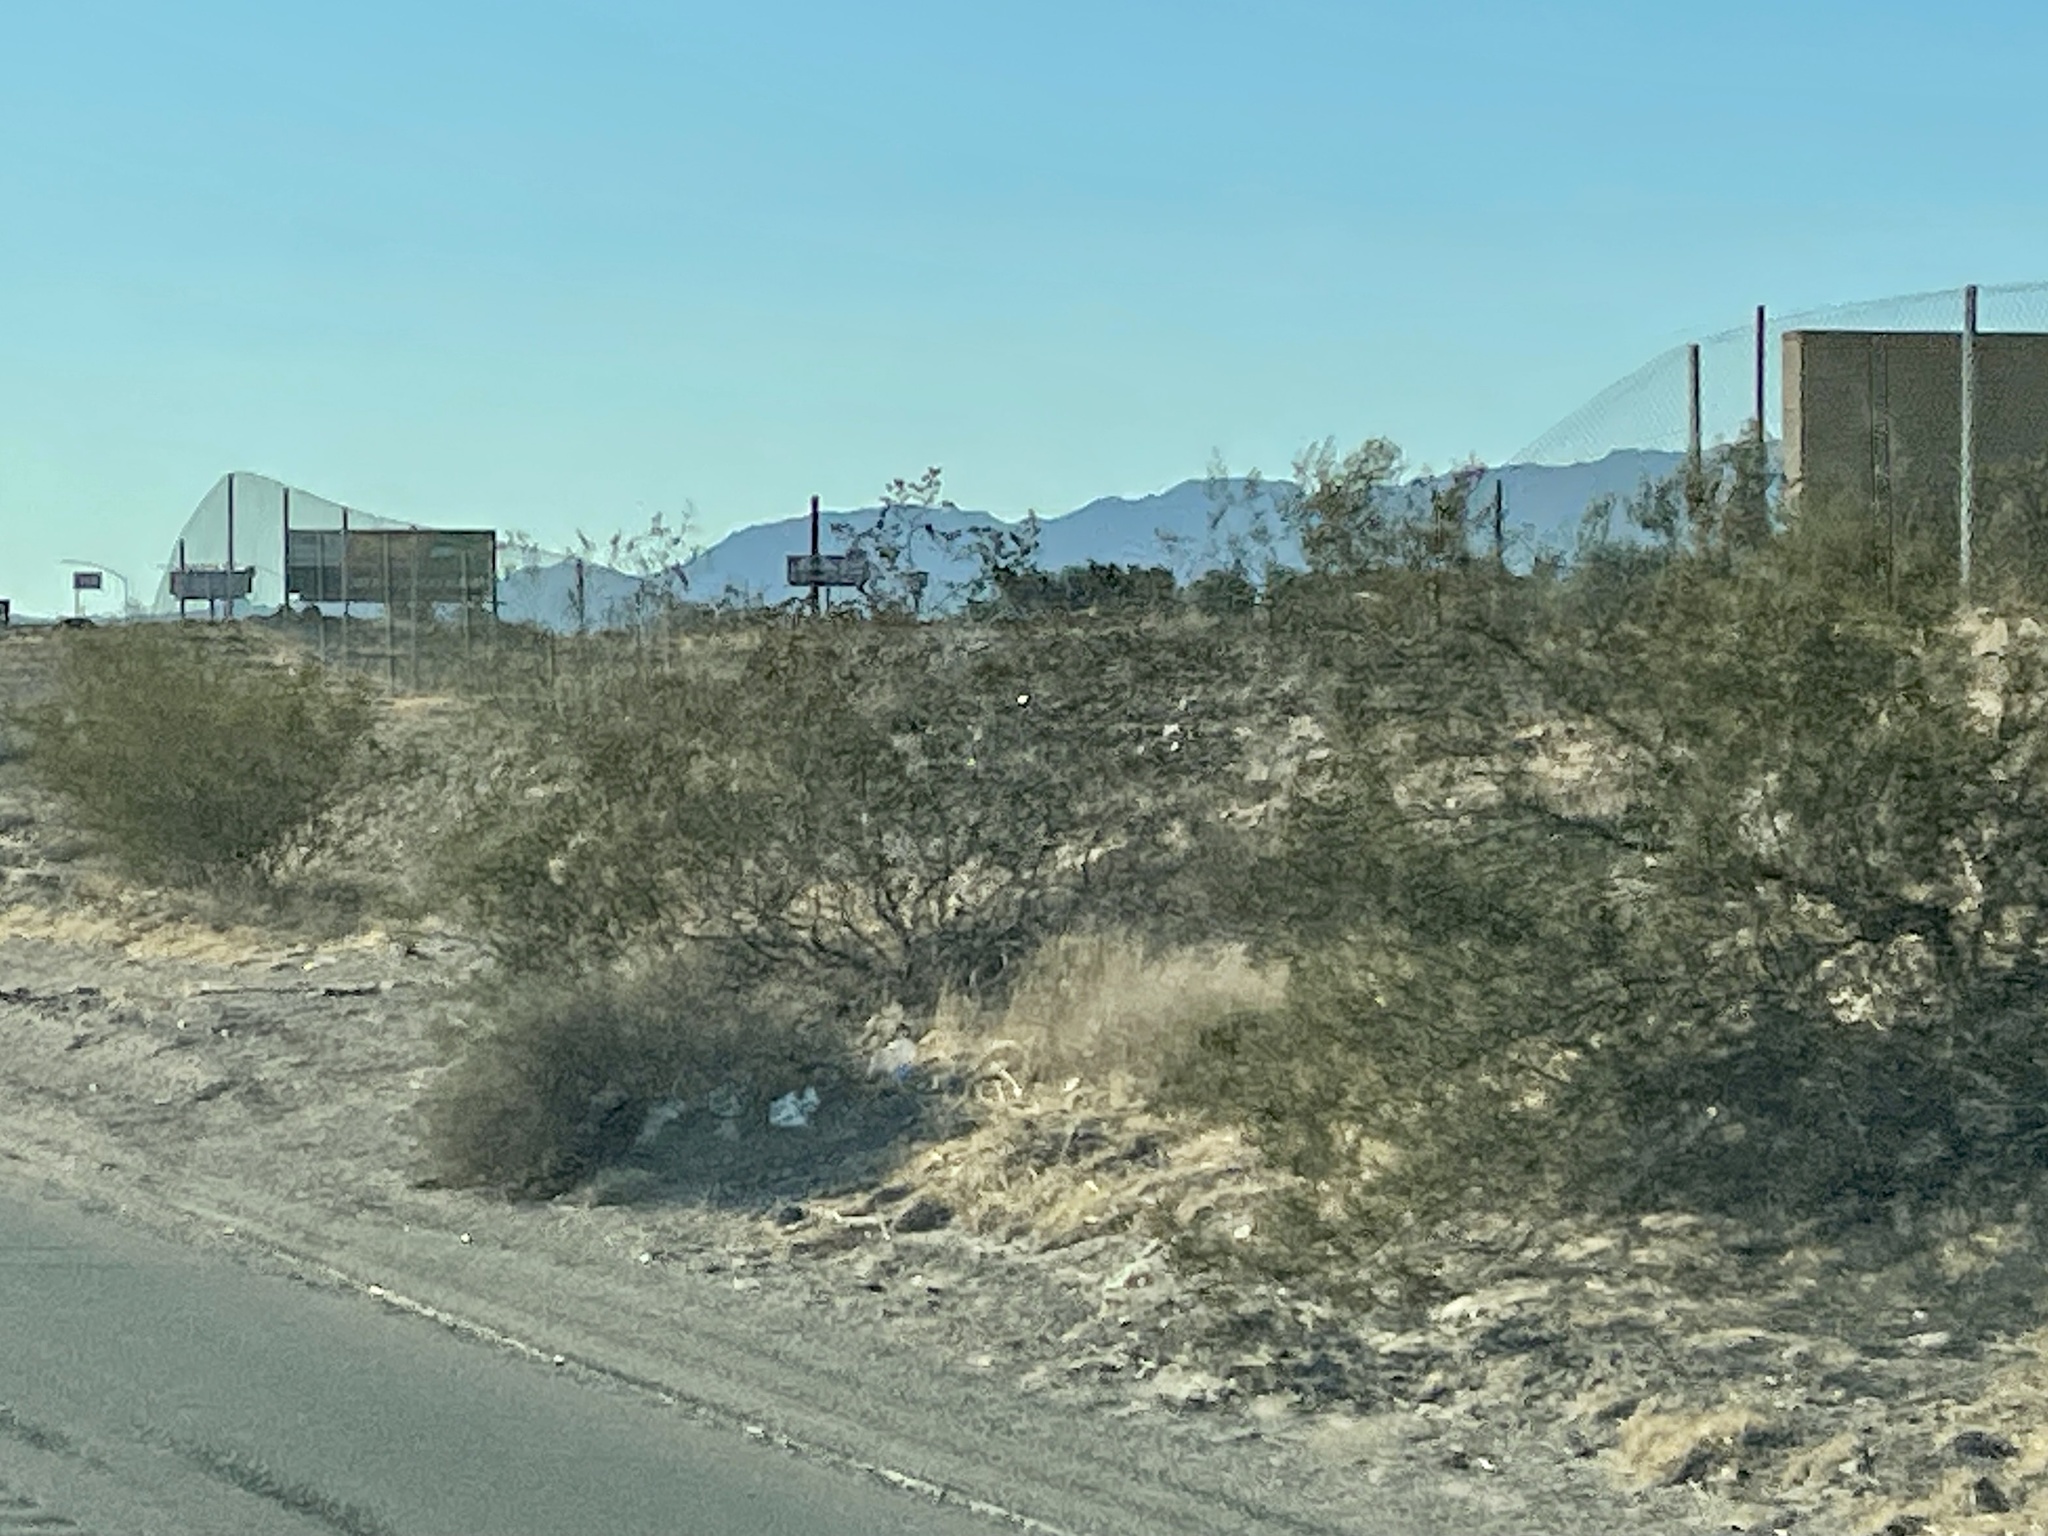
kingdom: Plantae
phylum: Tracheophyta
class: Magnoliopsida
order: Zygophyllales
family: Zygophyllaceae
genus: Larrea
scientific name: Larrea tridentata
